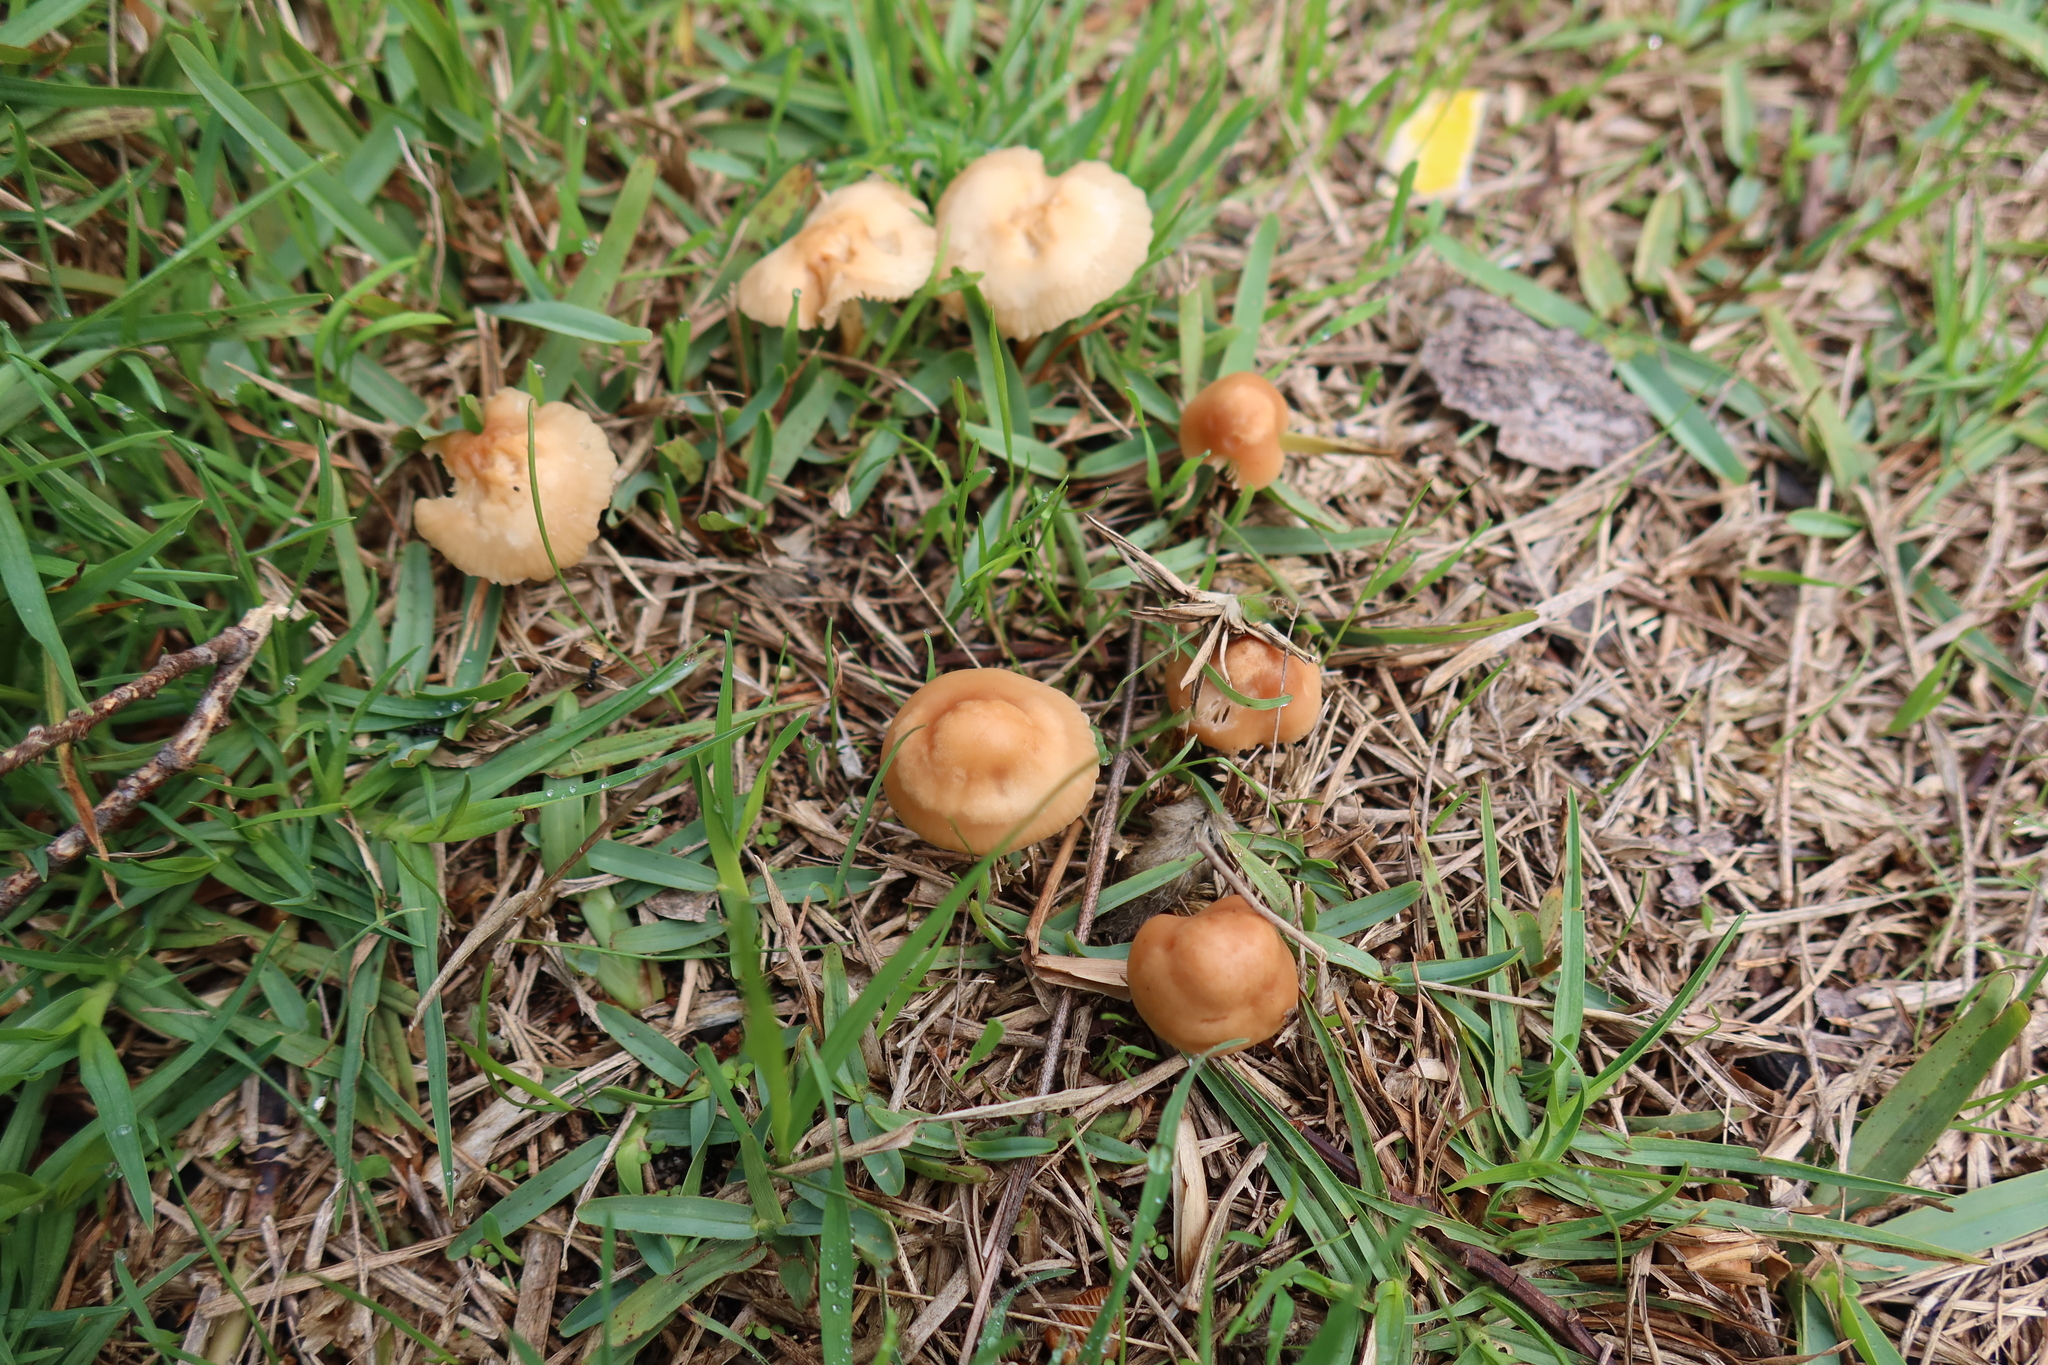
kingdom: Fungi
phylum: Basidiomycota
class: Agaricomycetes
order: Agaricales
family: Marasmiaceae
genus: Marasmius
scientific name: Marasmius oreades
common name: Fairy ring champignon
